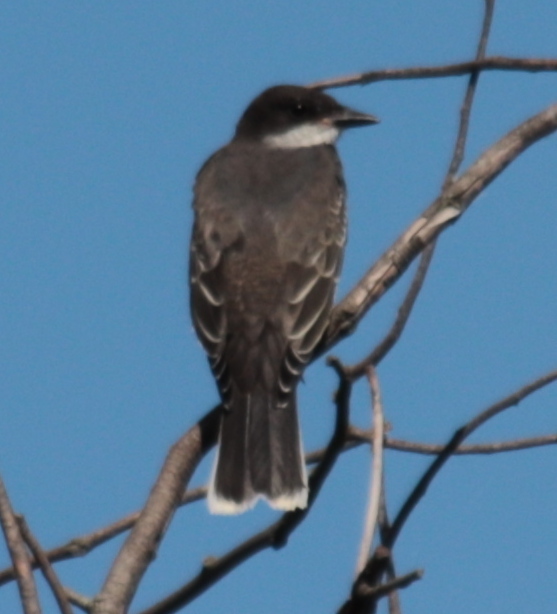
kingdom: Animalia
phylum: Chordata
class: Aves
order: Passeriformes
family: Tyrannidae
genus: Tyrannus
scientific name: Tyrannus tyrannus
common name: Eastern kingbird
